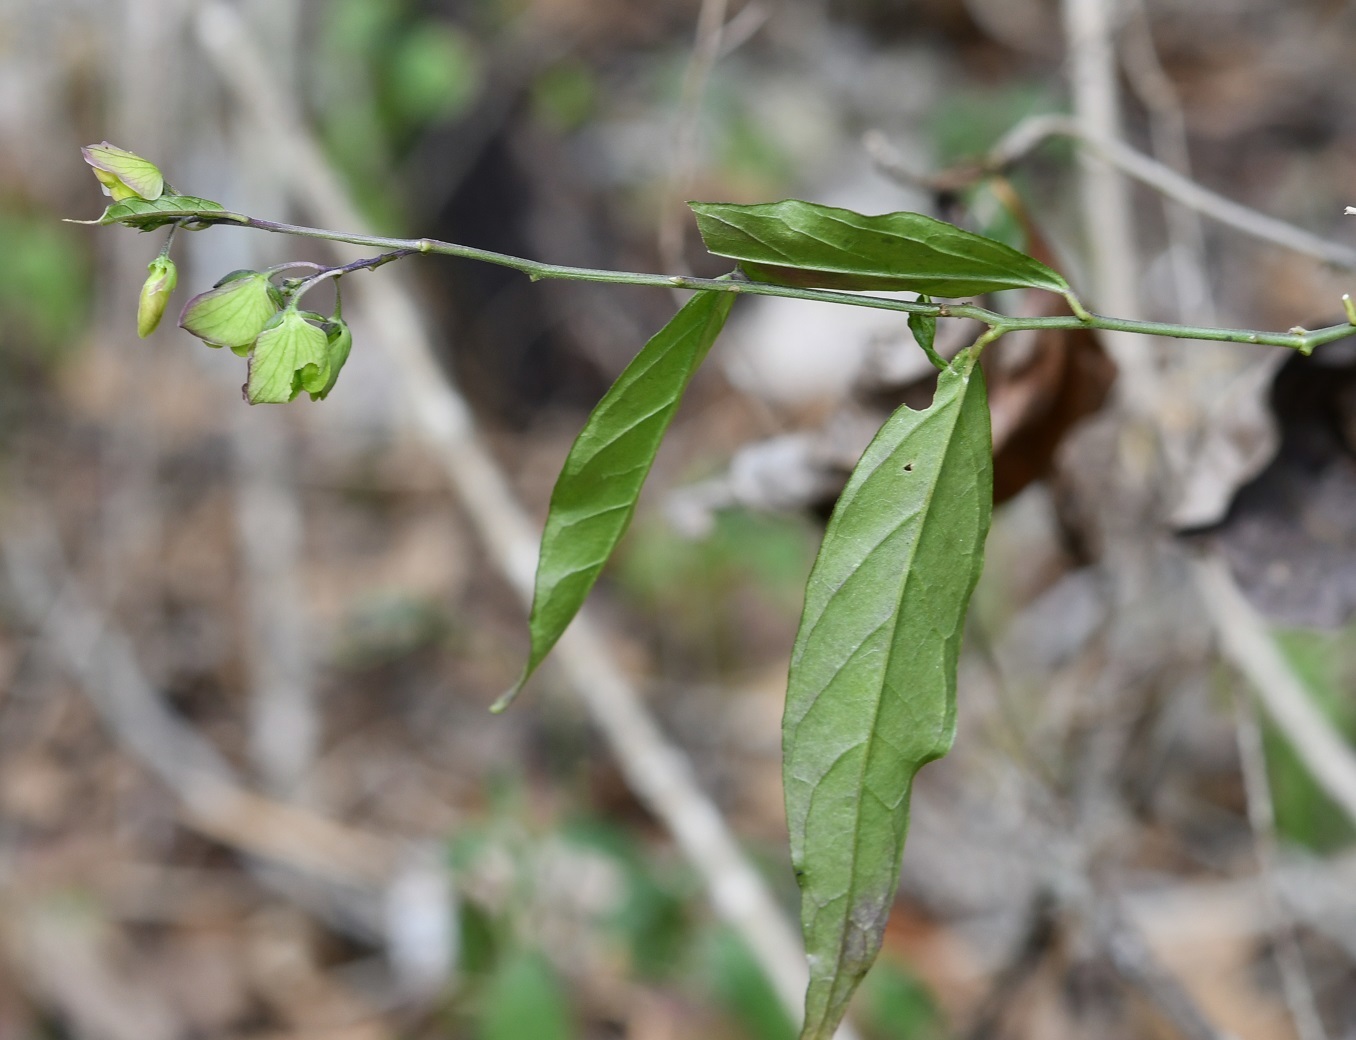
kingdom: Plantae
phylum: Tracheophyta
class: Magnoliopsida
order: Fabales
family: Polygalaceae
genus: Hebecarpa
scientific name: Hebecarpa costaricensis
